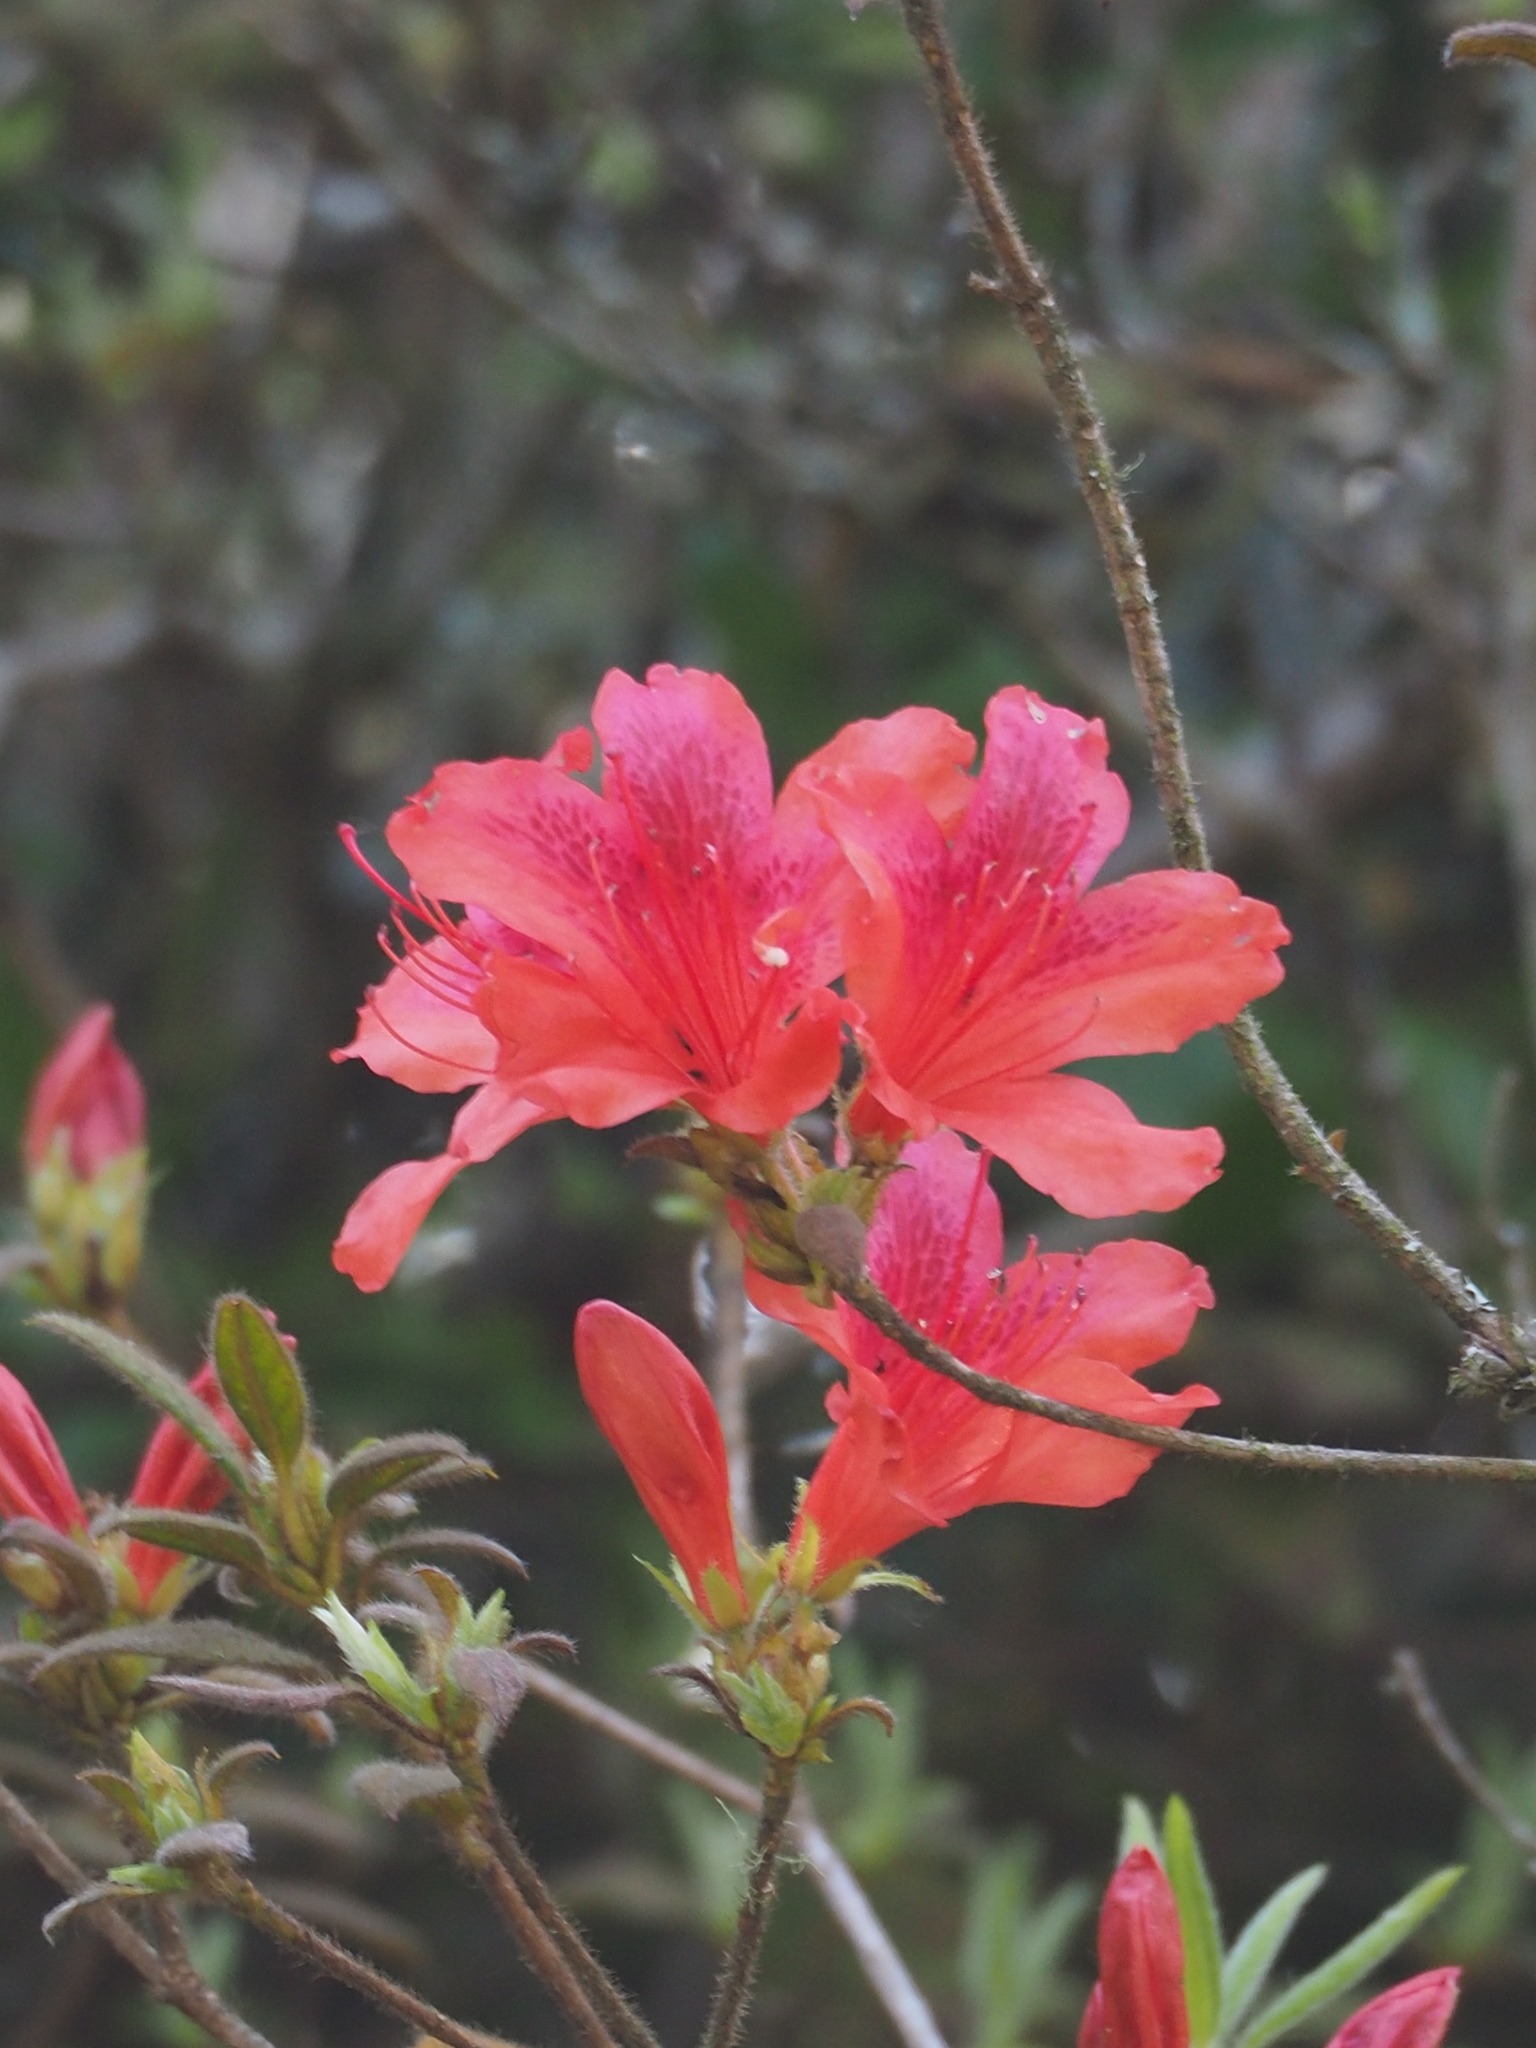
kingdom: Plantae
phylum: Tracheophyta
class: Magnoliopsida
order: Ericales
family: Ericaceae
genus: Rhododendron
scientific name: Rhododendron oldhamii
